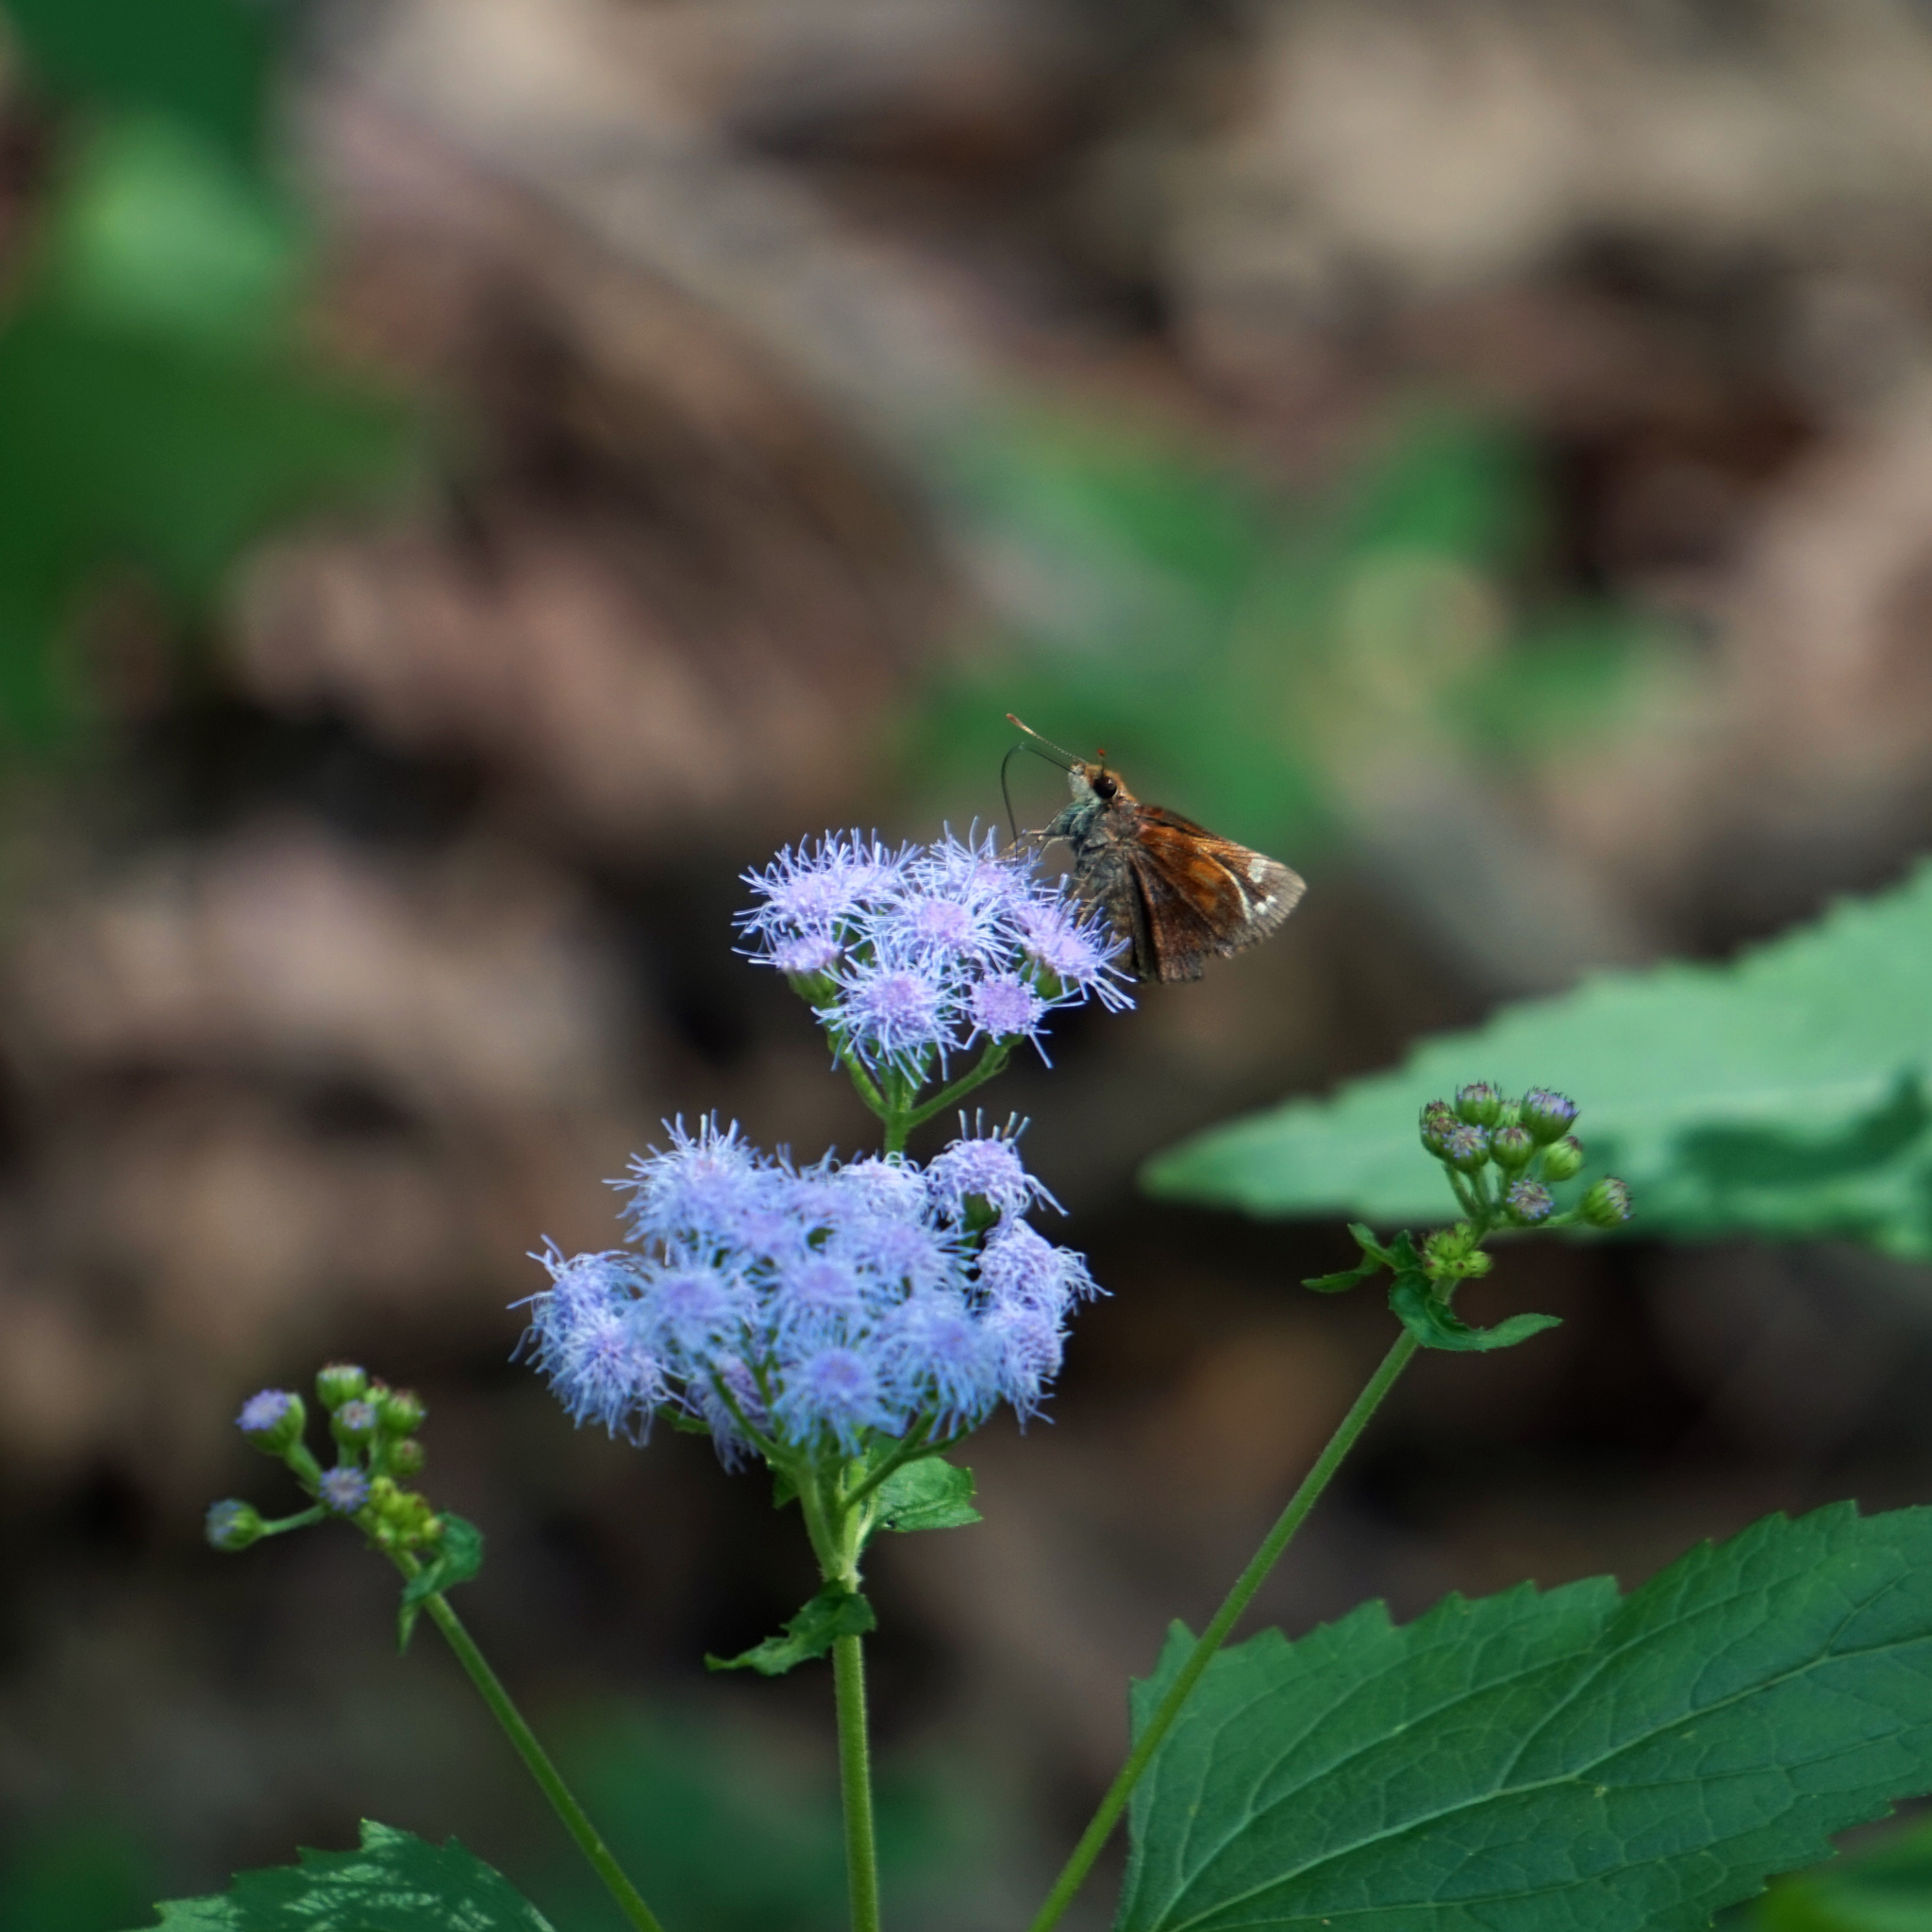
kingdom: Animalia
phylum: Arthropoda
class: Insecta
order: Lepidoptera
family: Hesperiidae
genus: Lon
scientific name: Lon zabulon
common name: Zabulon skipper
